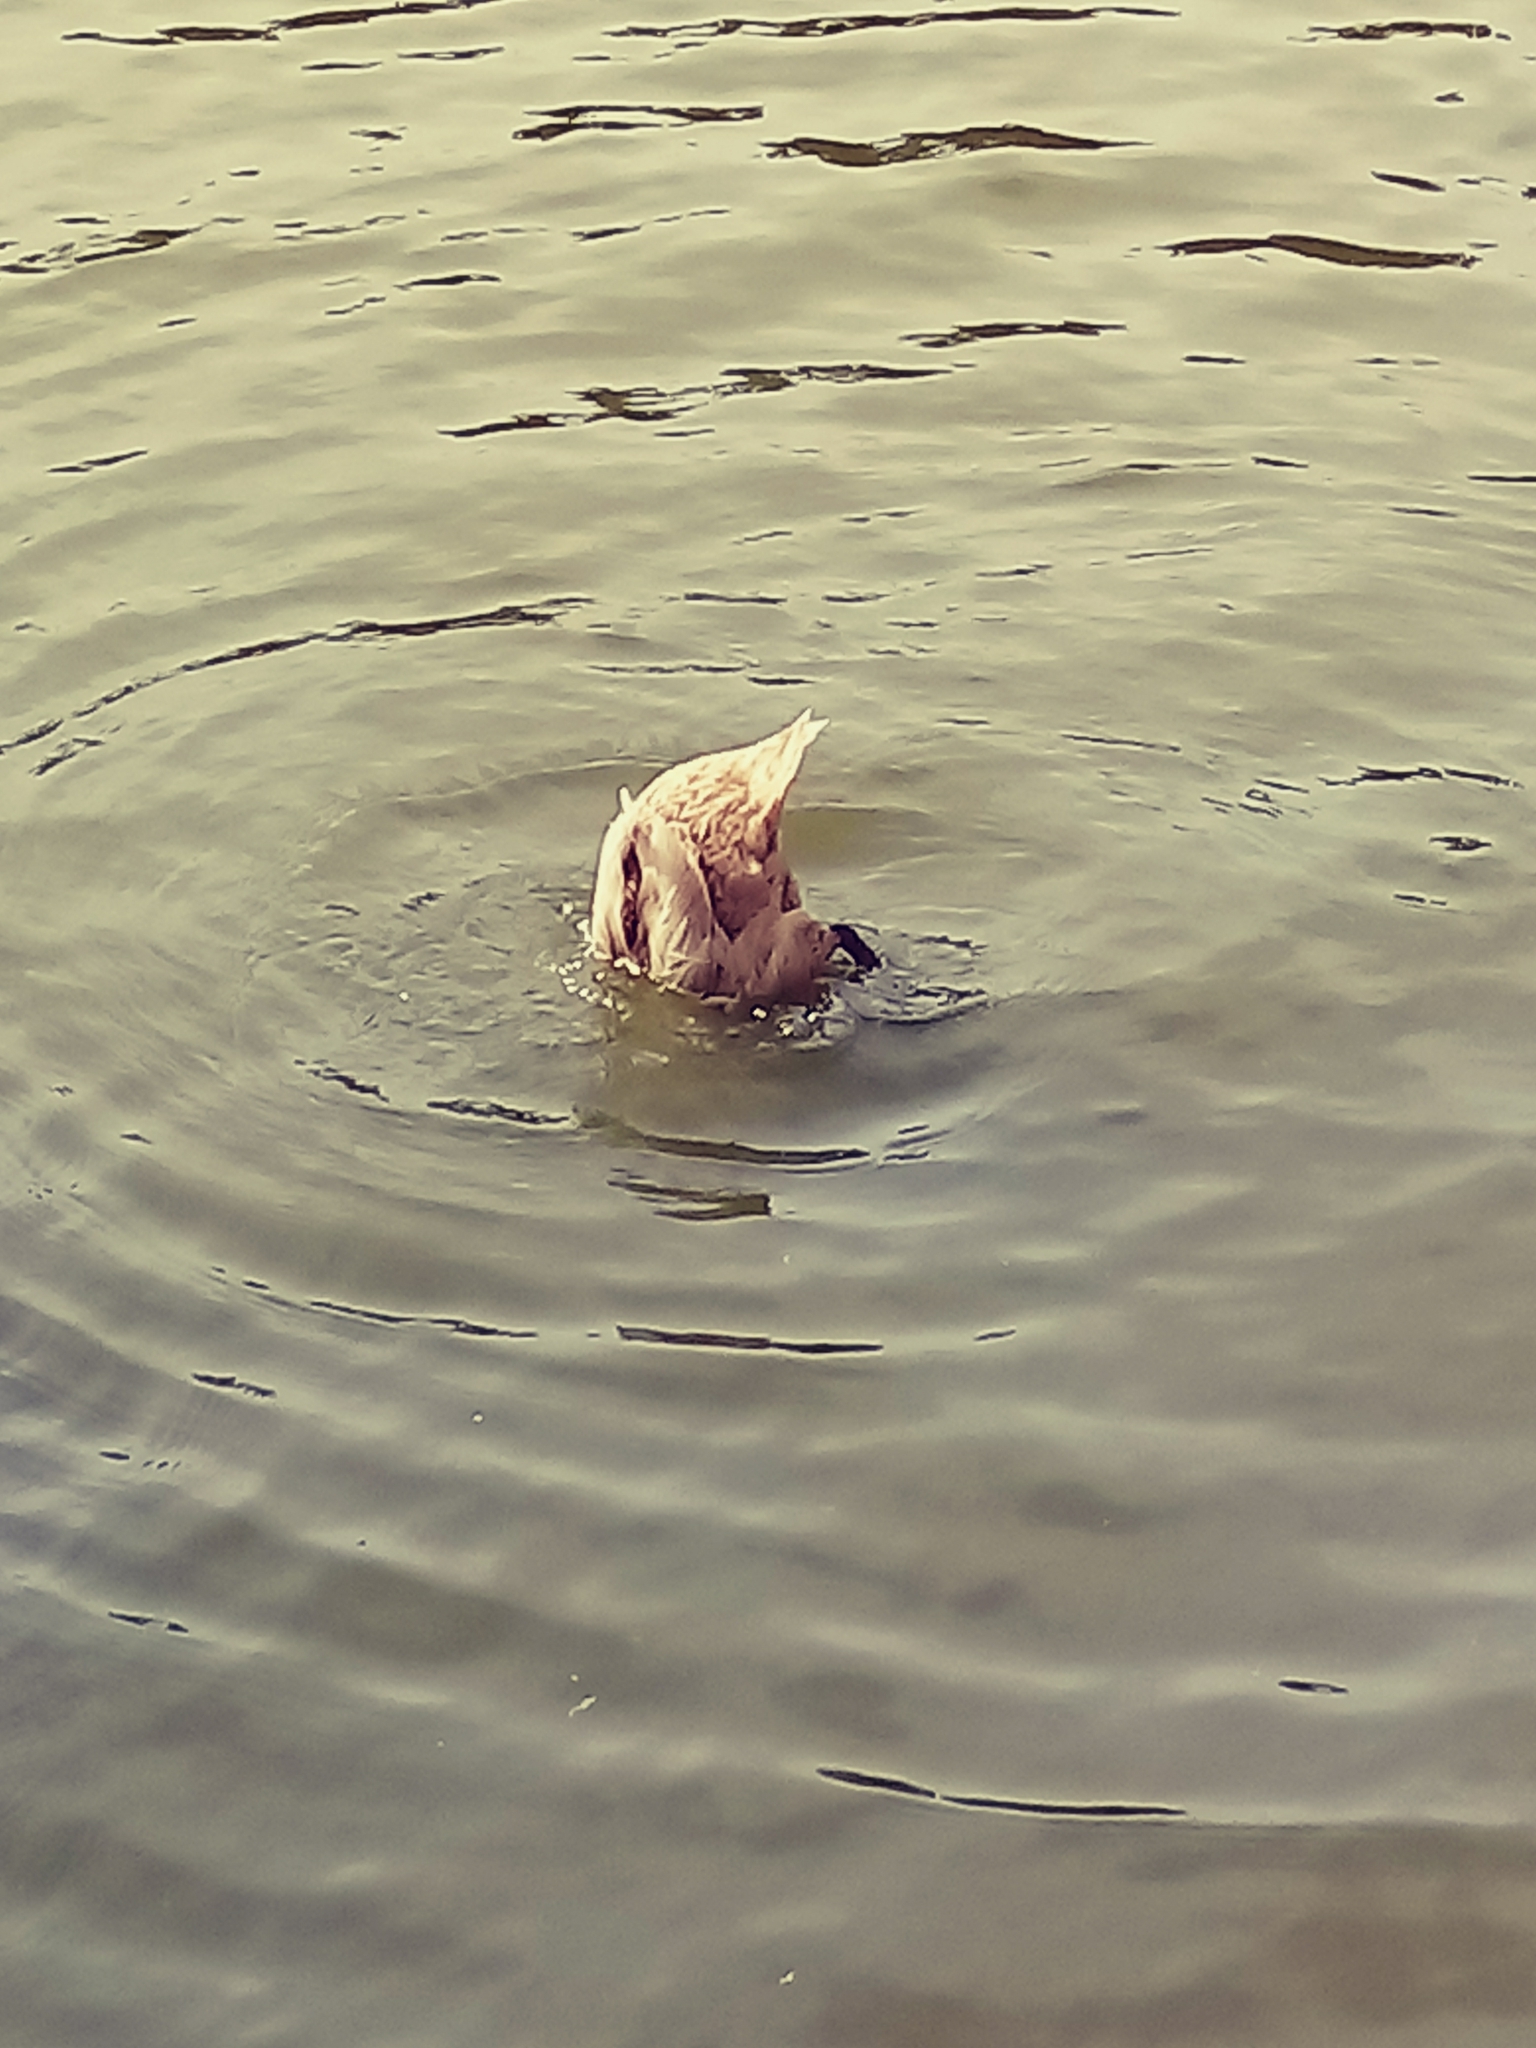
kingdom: Animalia
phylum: Chordata
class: Aves
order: Anseriformes
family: Anatidae
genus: Anas
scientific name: Anas platyrhynchos
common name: Mallard
